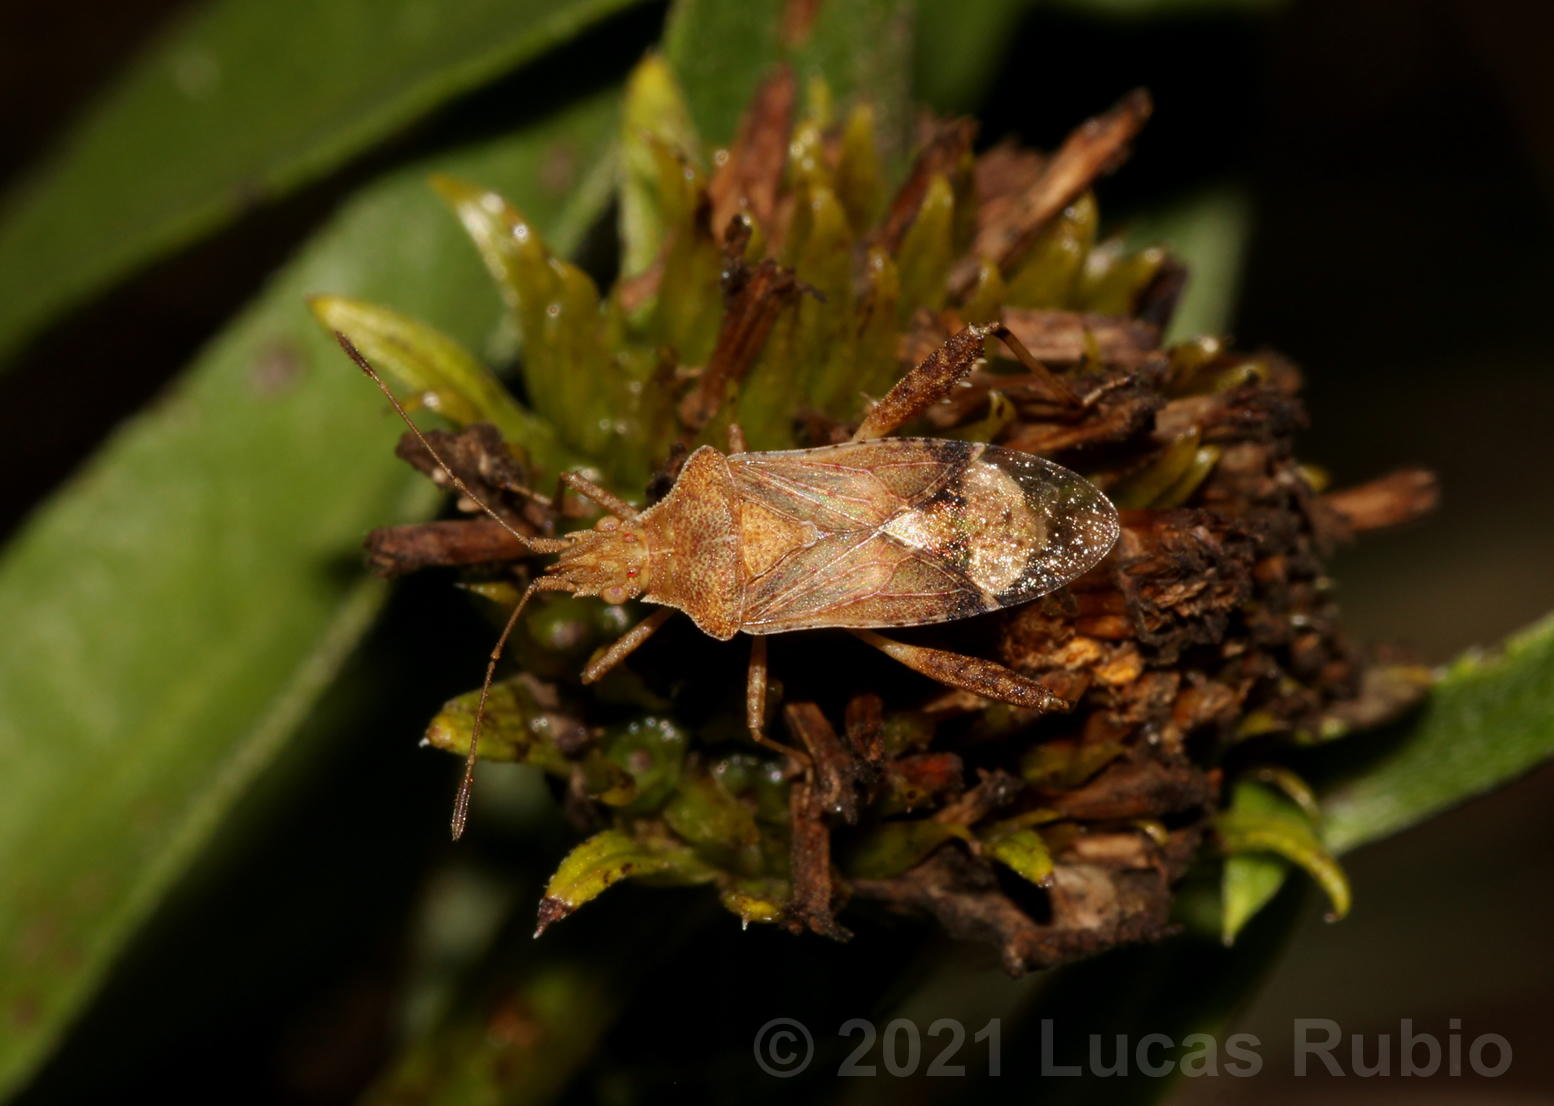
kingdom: Animalia
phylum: Arthropoda
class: Insecta
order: Hemiptera
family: Rhopalidae
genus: Harmostes
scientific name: Harmostes serratus
